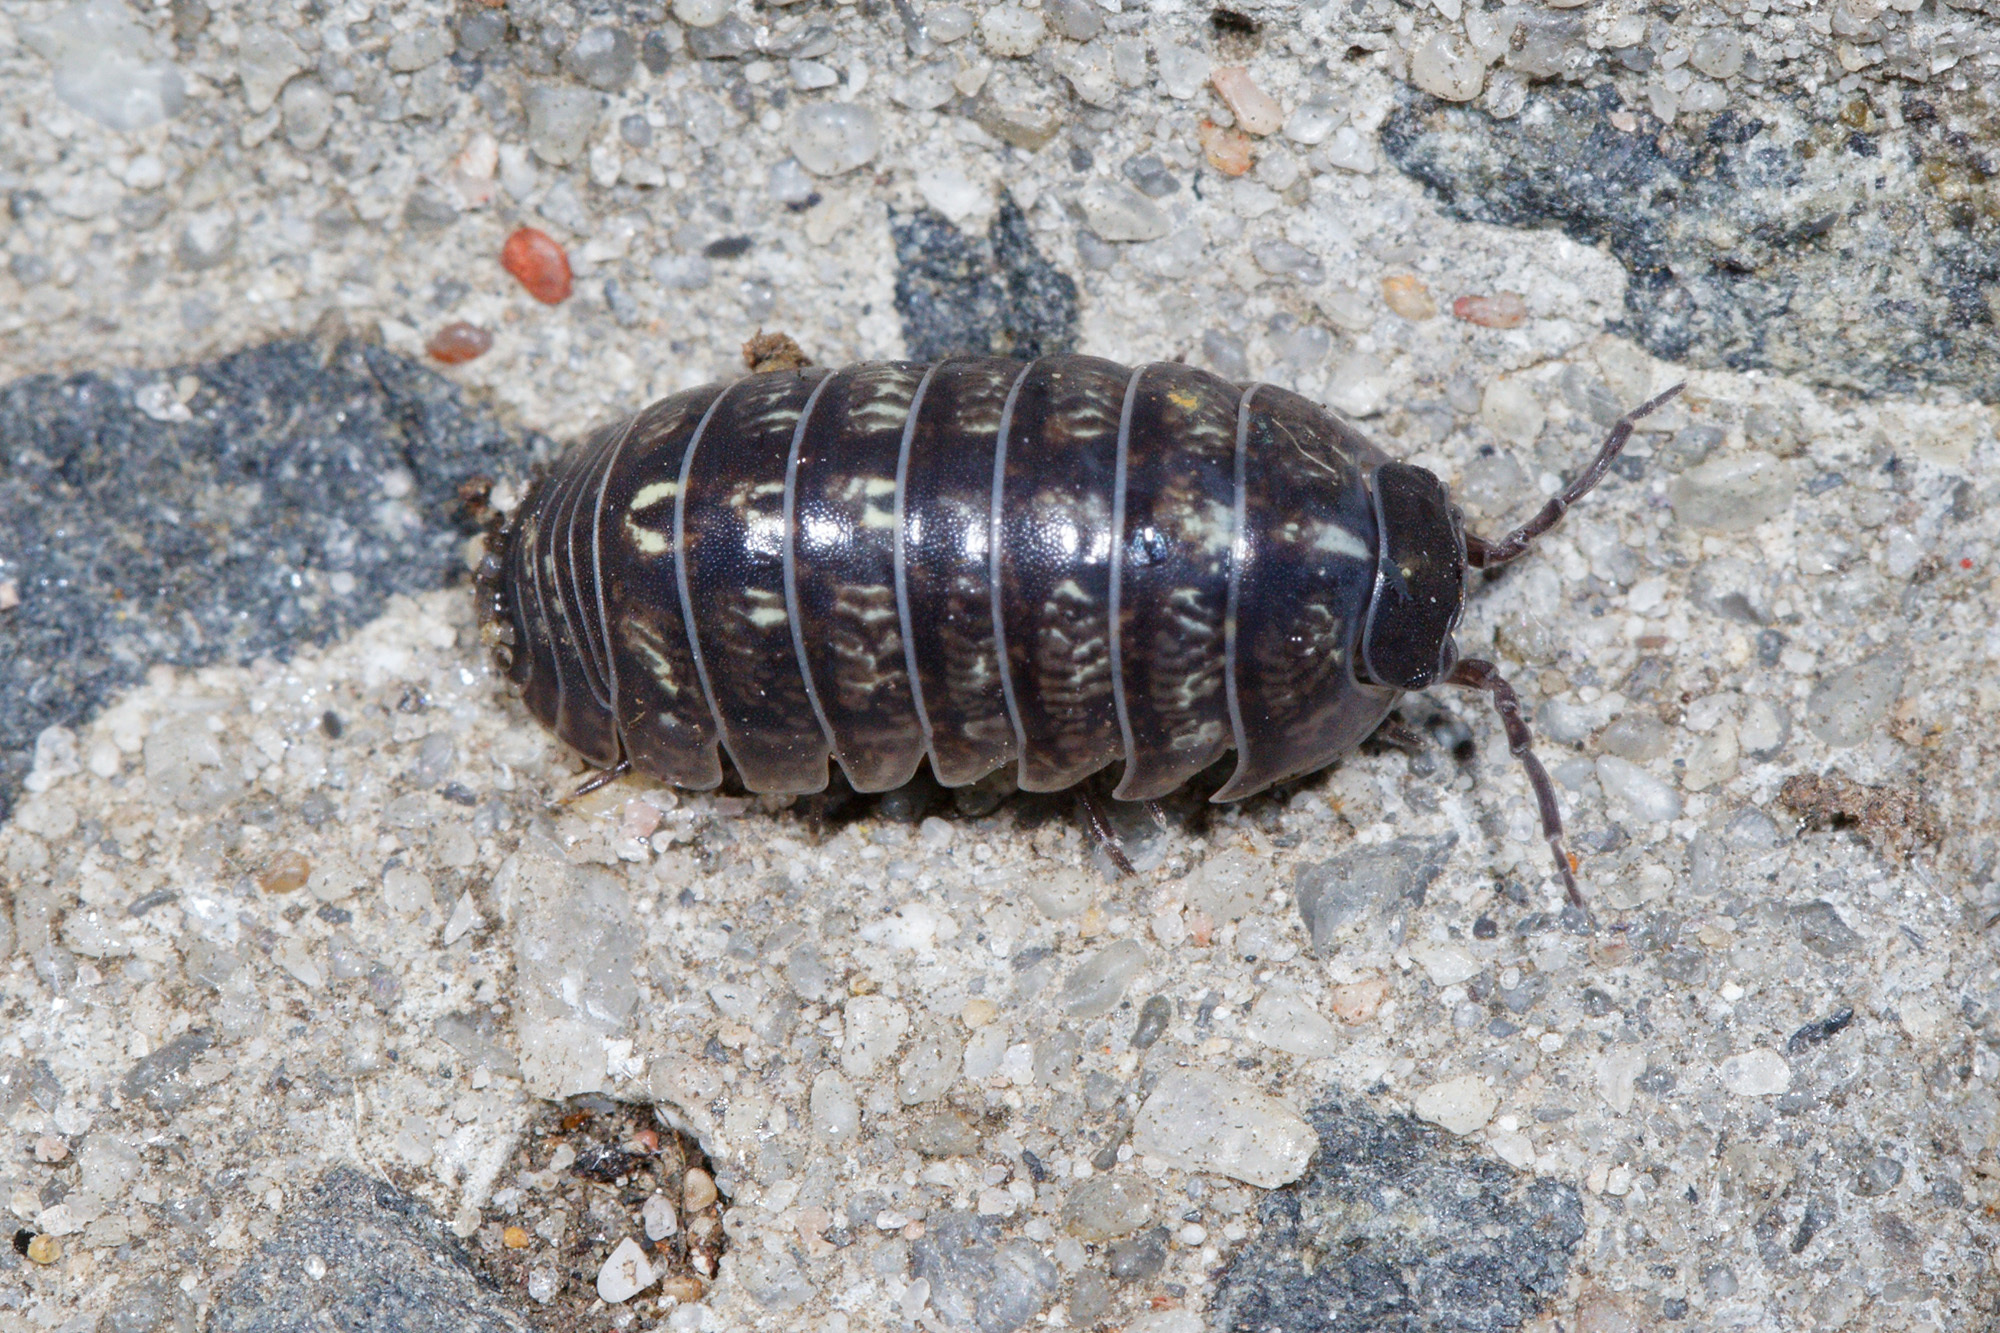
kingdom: Animalia
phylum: Arthropoda
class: Malacostraca
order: Isopoda
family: Armadillidiidae
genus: Armadillidium
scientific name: Armadillidium vulgare
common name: Common pill woodlouse
